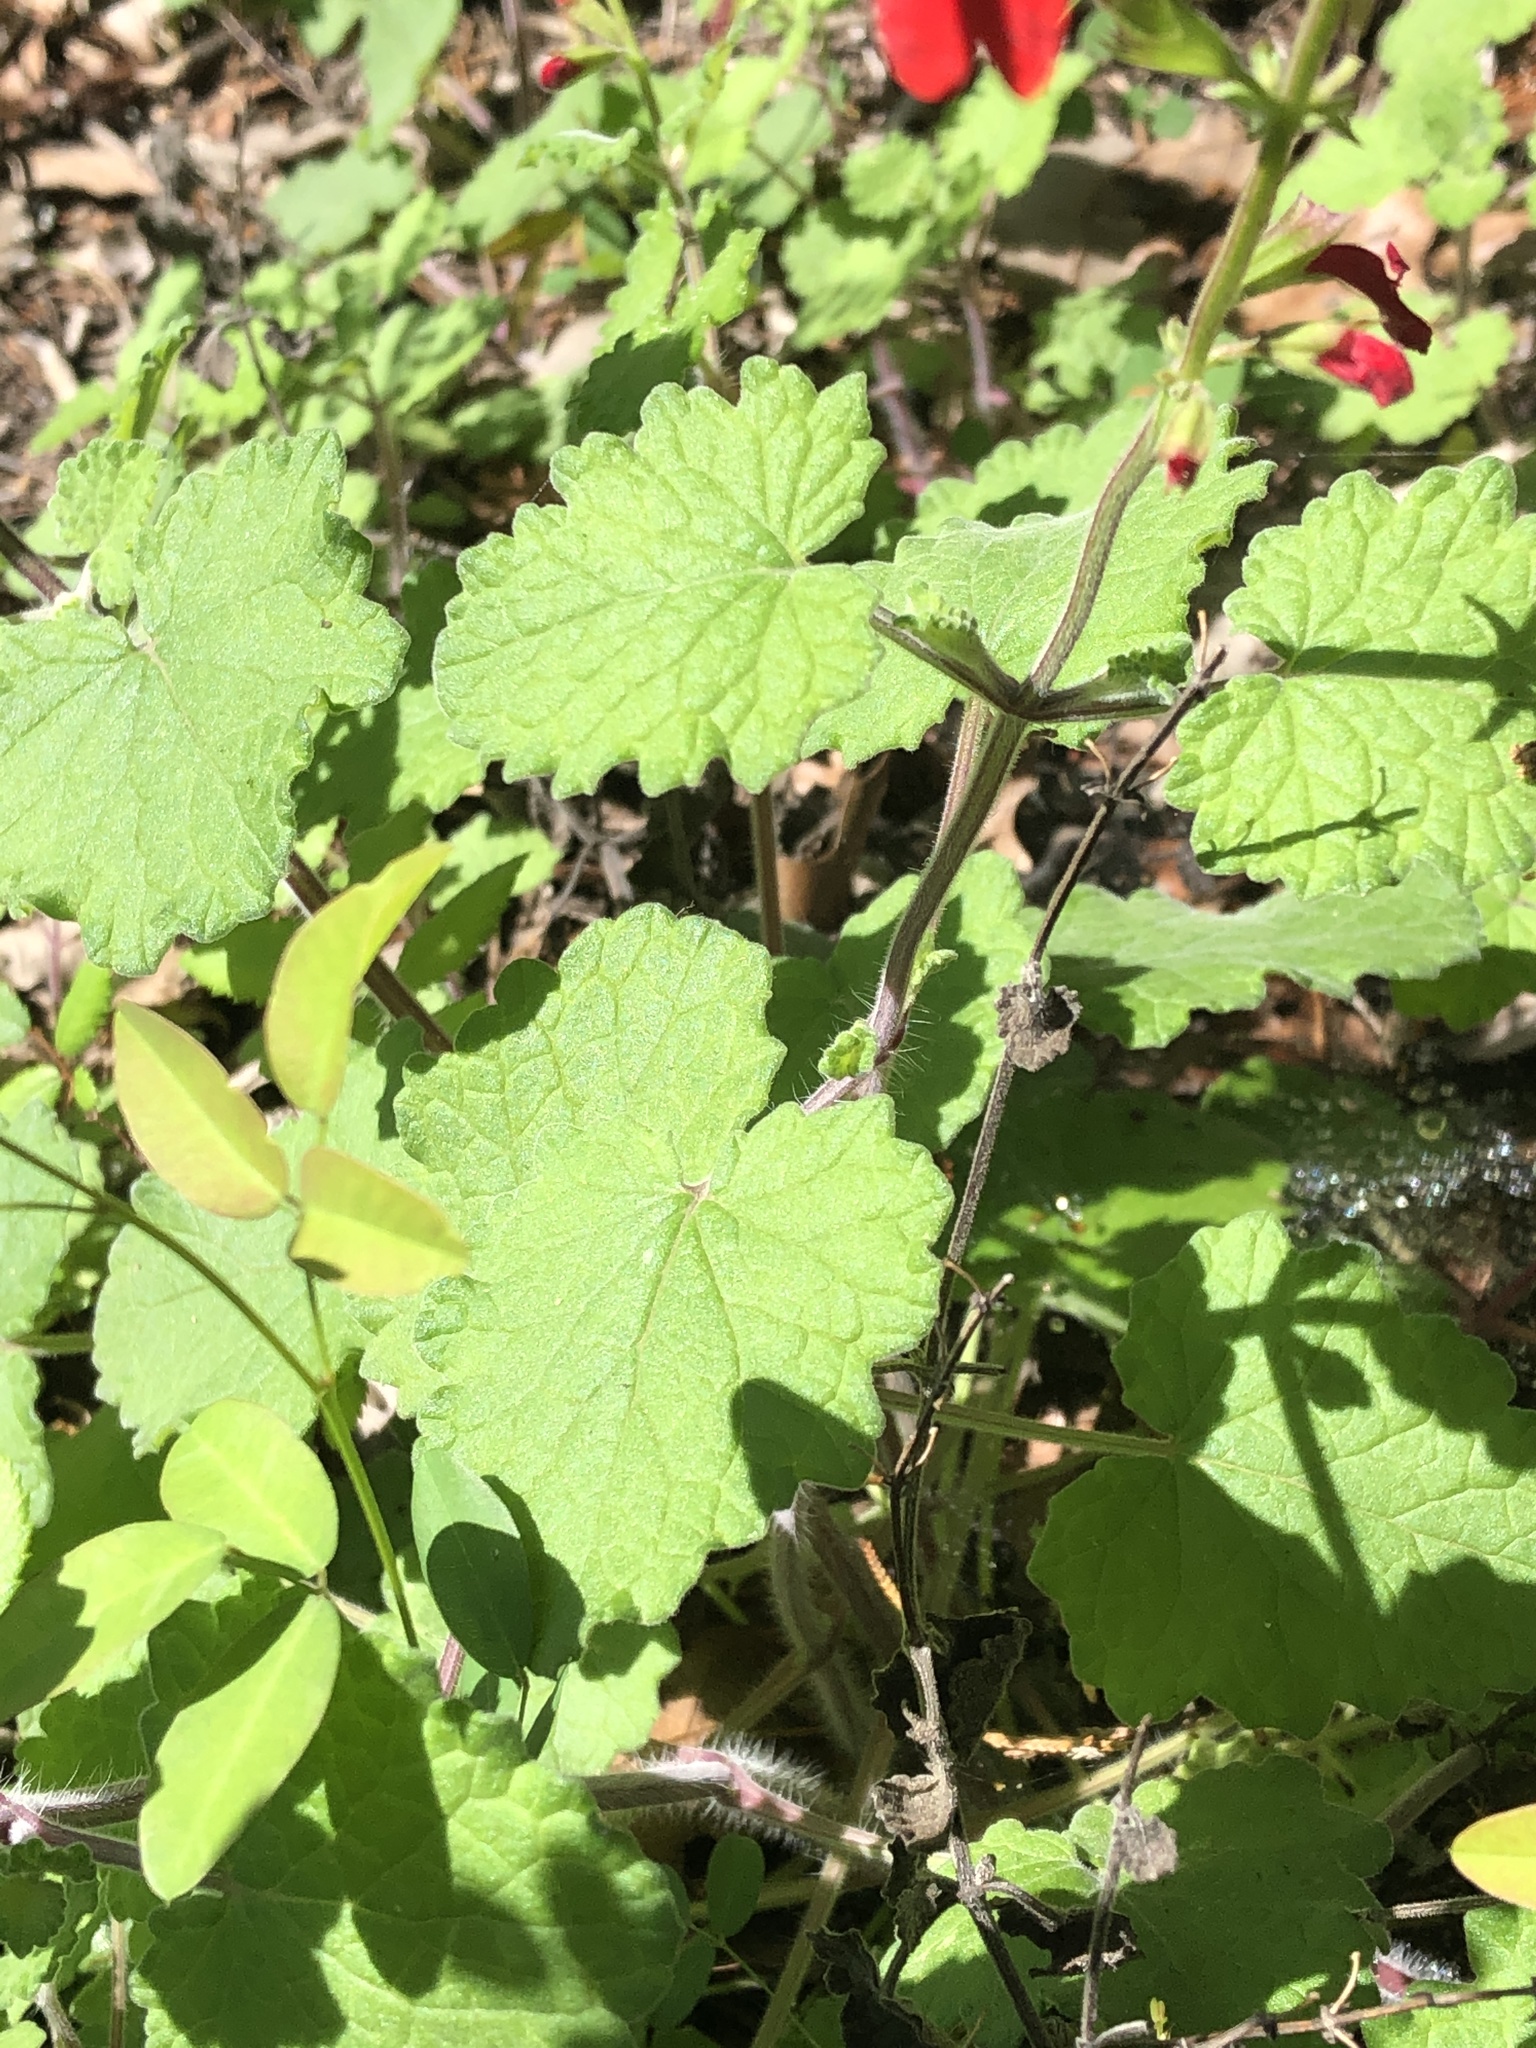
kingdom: Plantae
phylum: Tracheophyta
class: Magnoliopsida
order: Lamiales
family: Lamiaceae
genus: Salvia
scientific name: Salvia roemeriana
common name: Cedar sage
